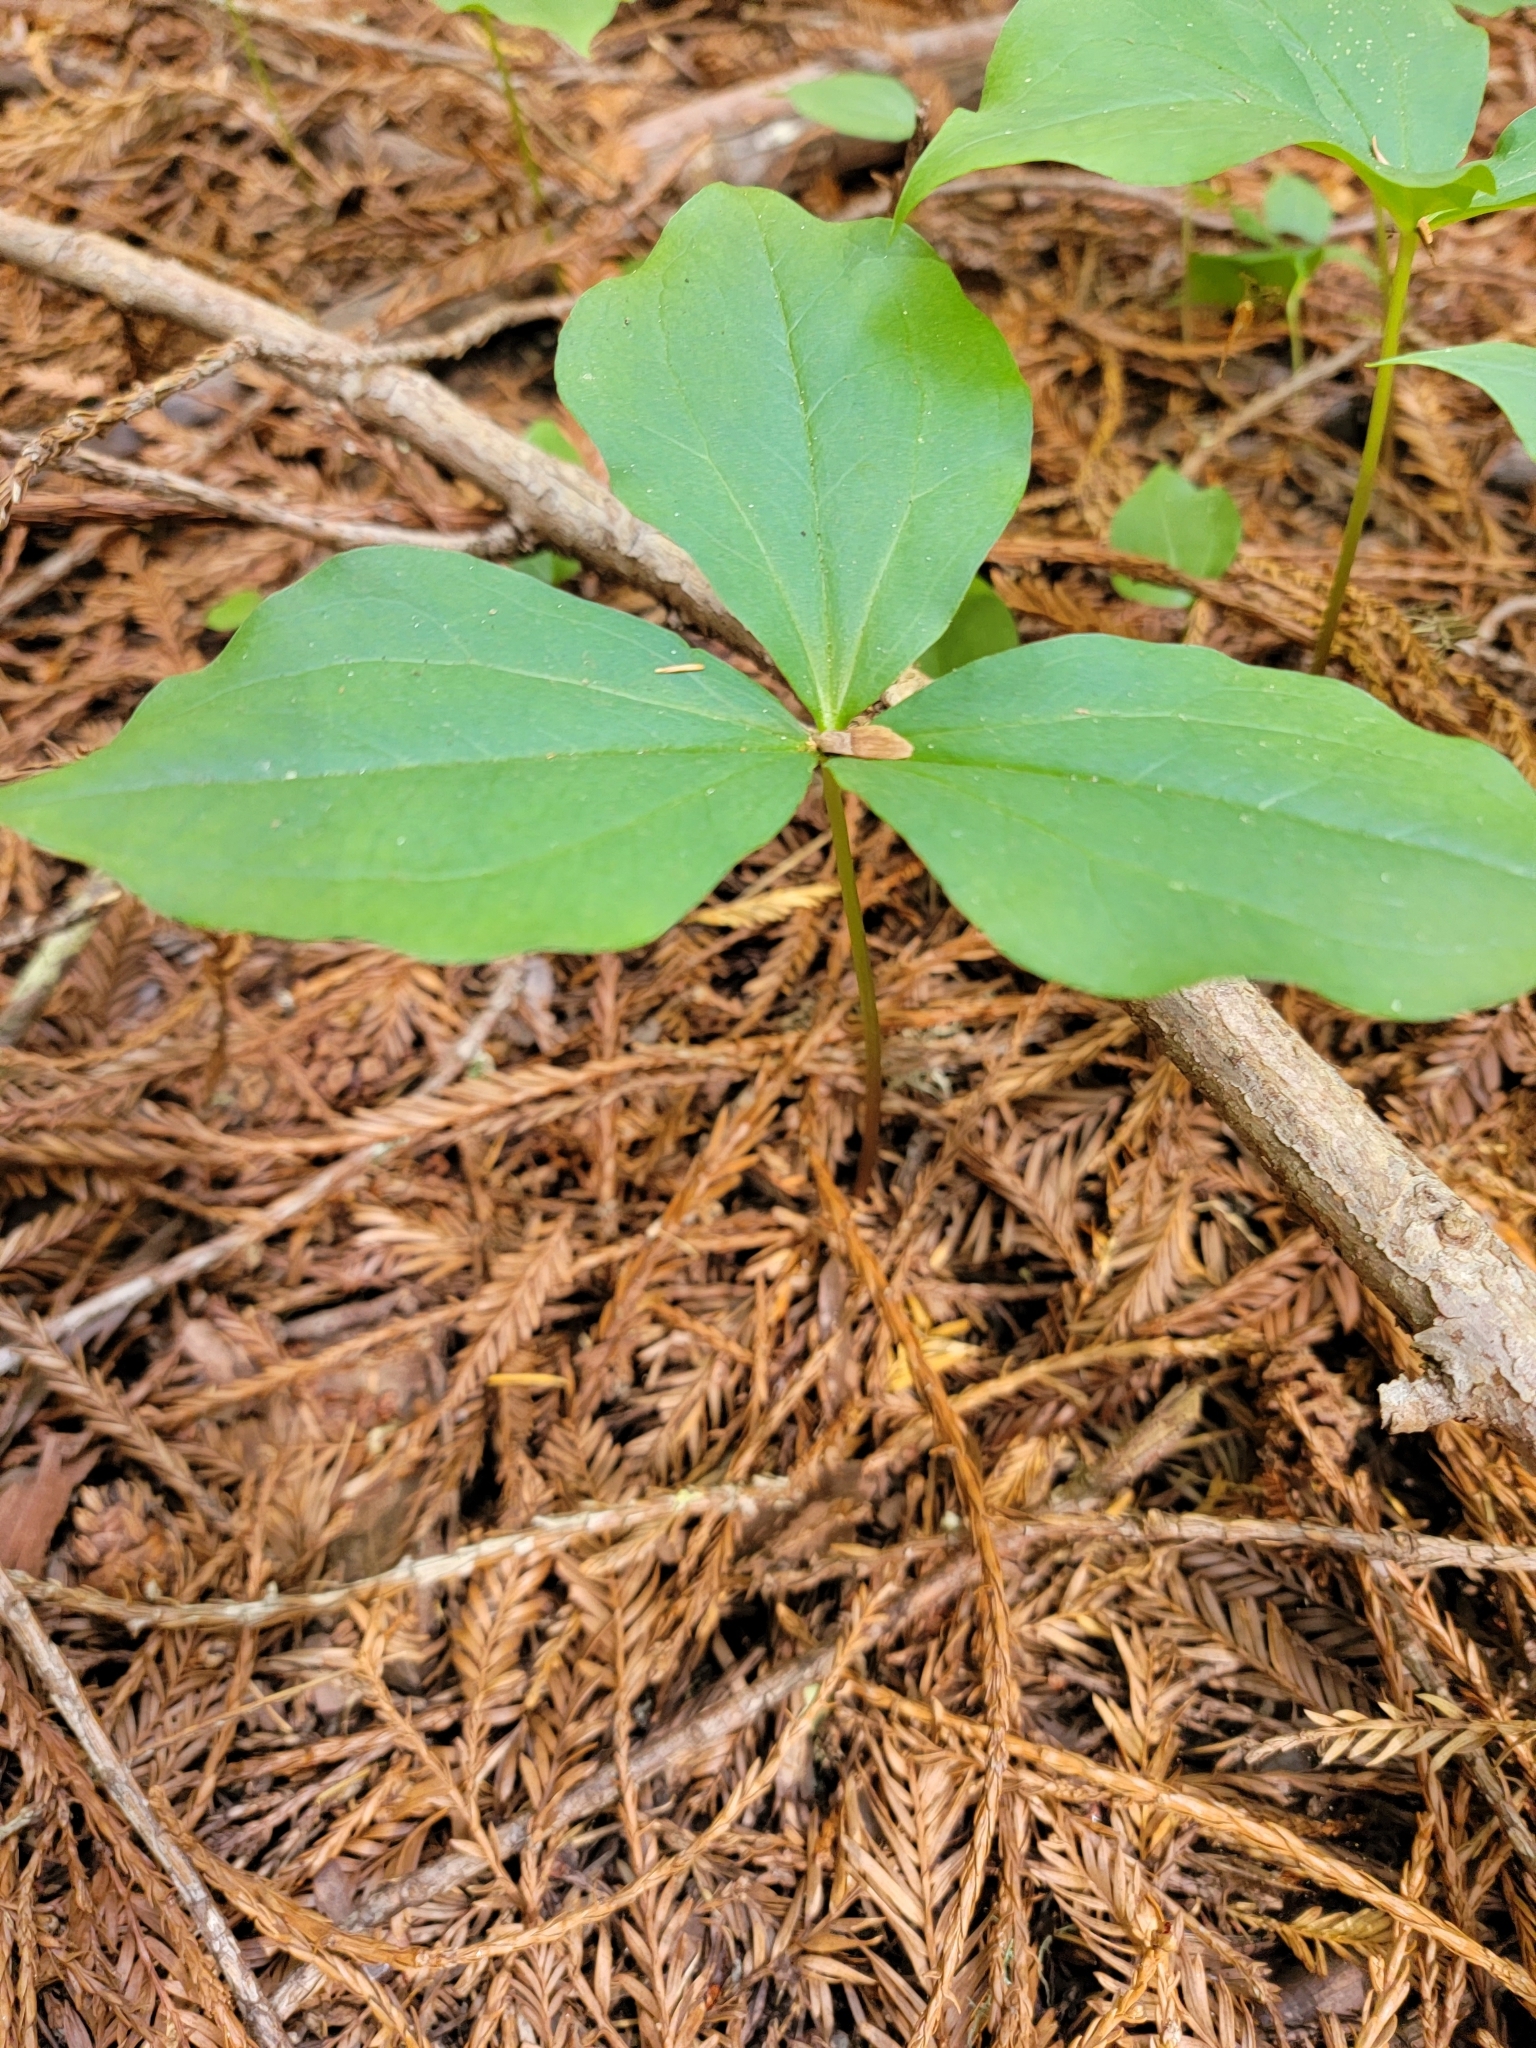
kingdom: Plantae
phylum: Tracheophyta
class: Liliopsida
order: Liliales
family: Melanthiaceae
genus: Trillium
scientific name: Trillium ovatum
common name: Pacific trillium
